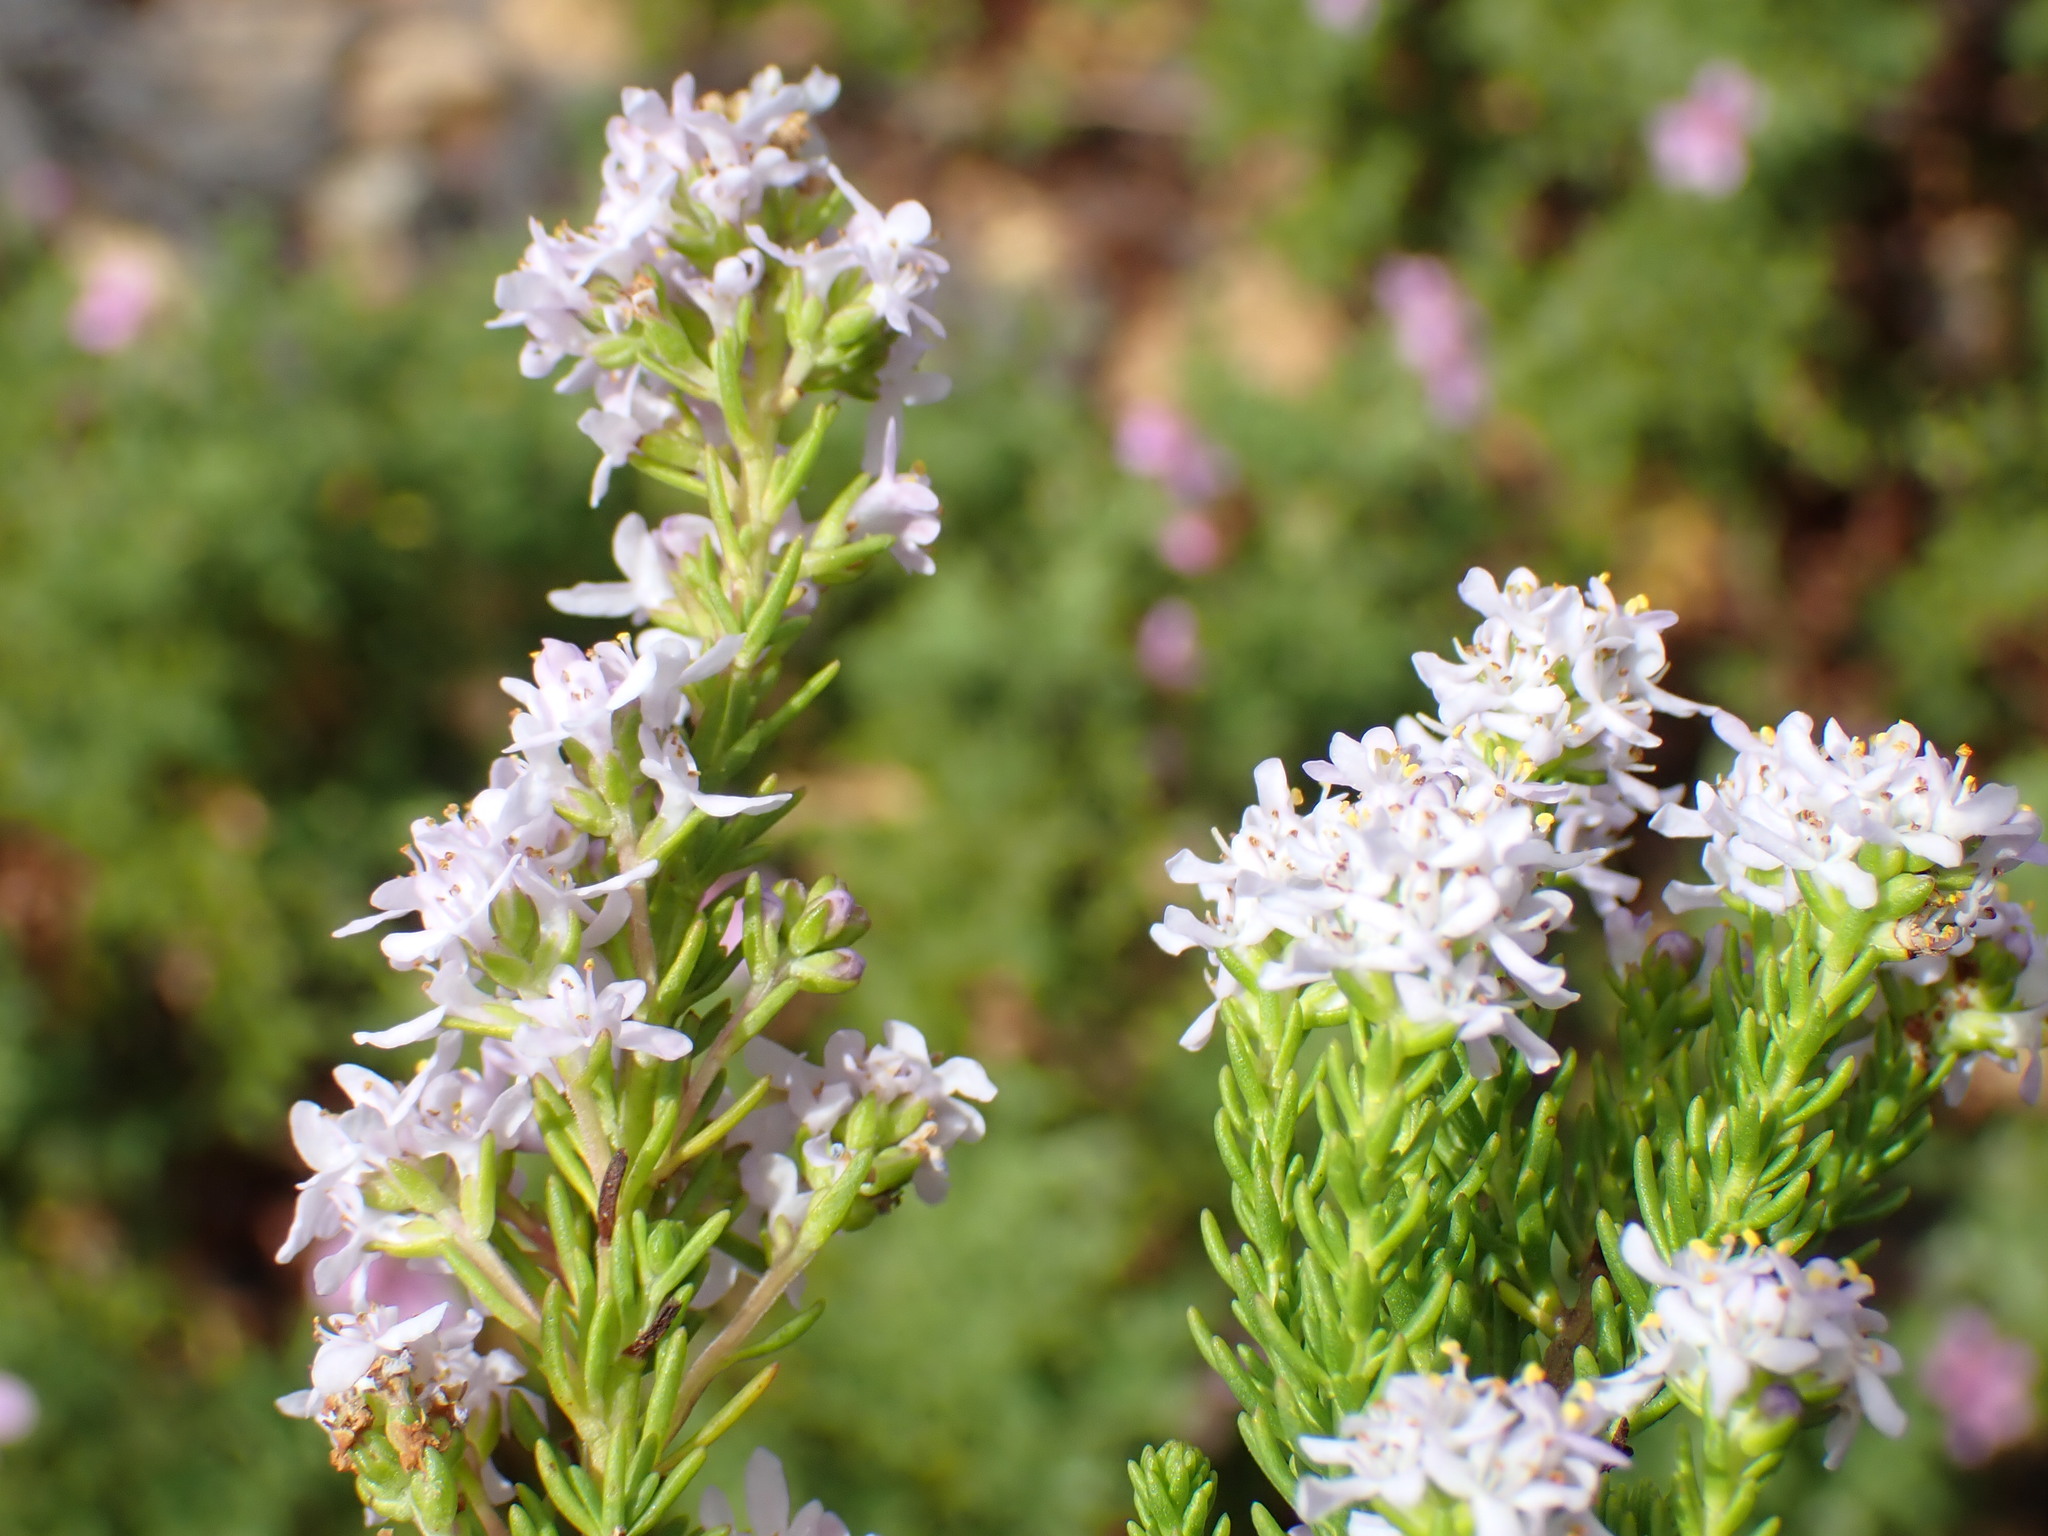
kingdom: Plantae
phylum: Tracheophyta
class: Magnoliopsida
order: Lamiales
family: Scrophulariaceae
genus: Selago
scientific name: Selago pulchra
